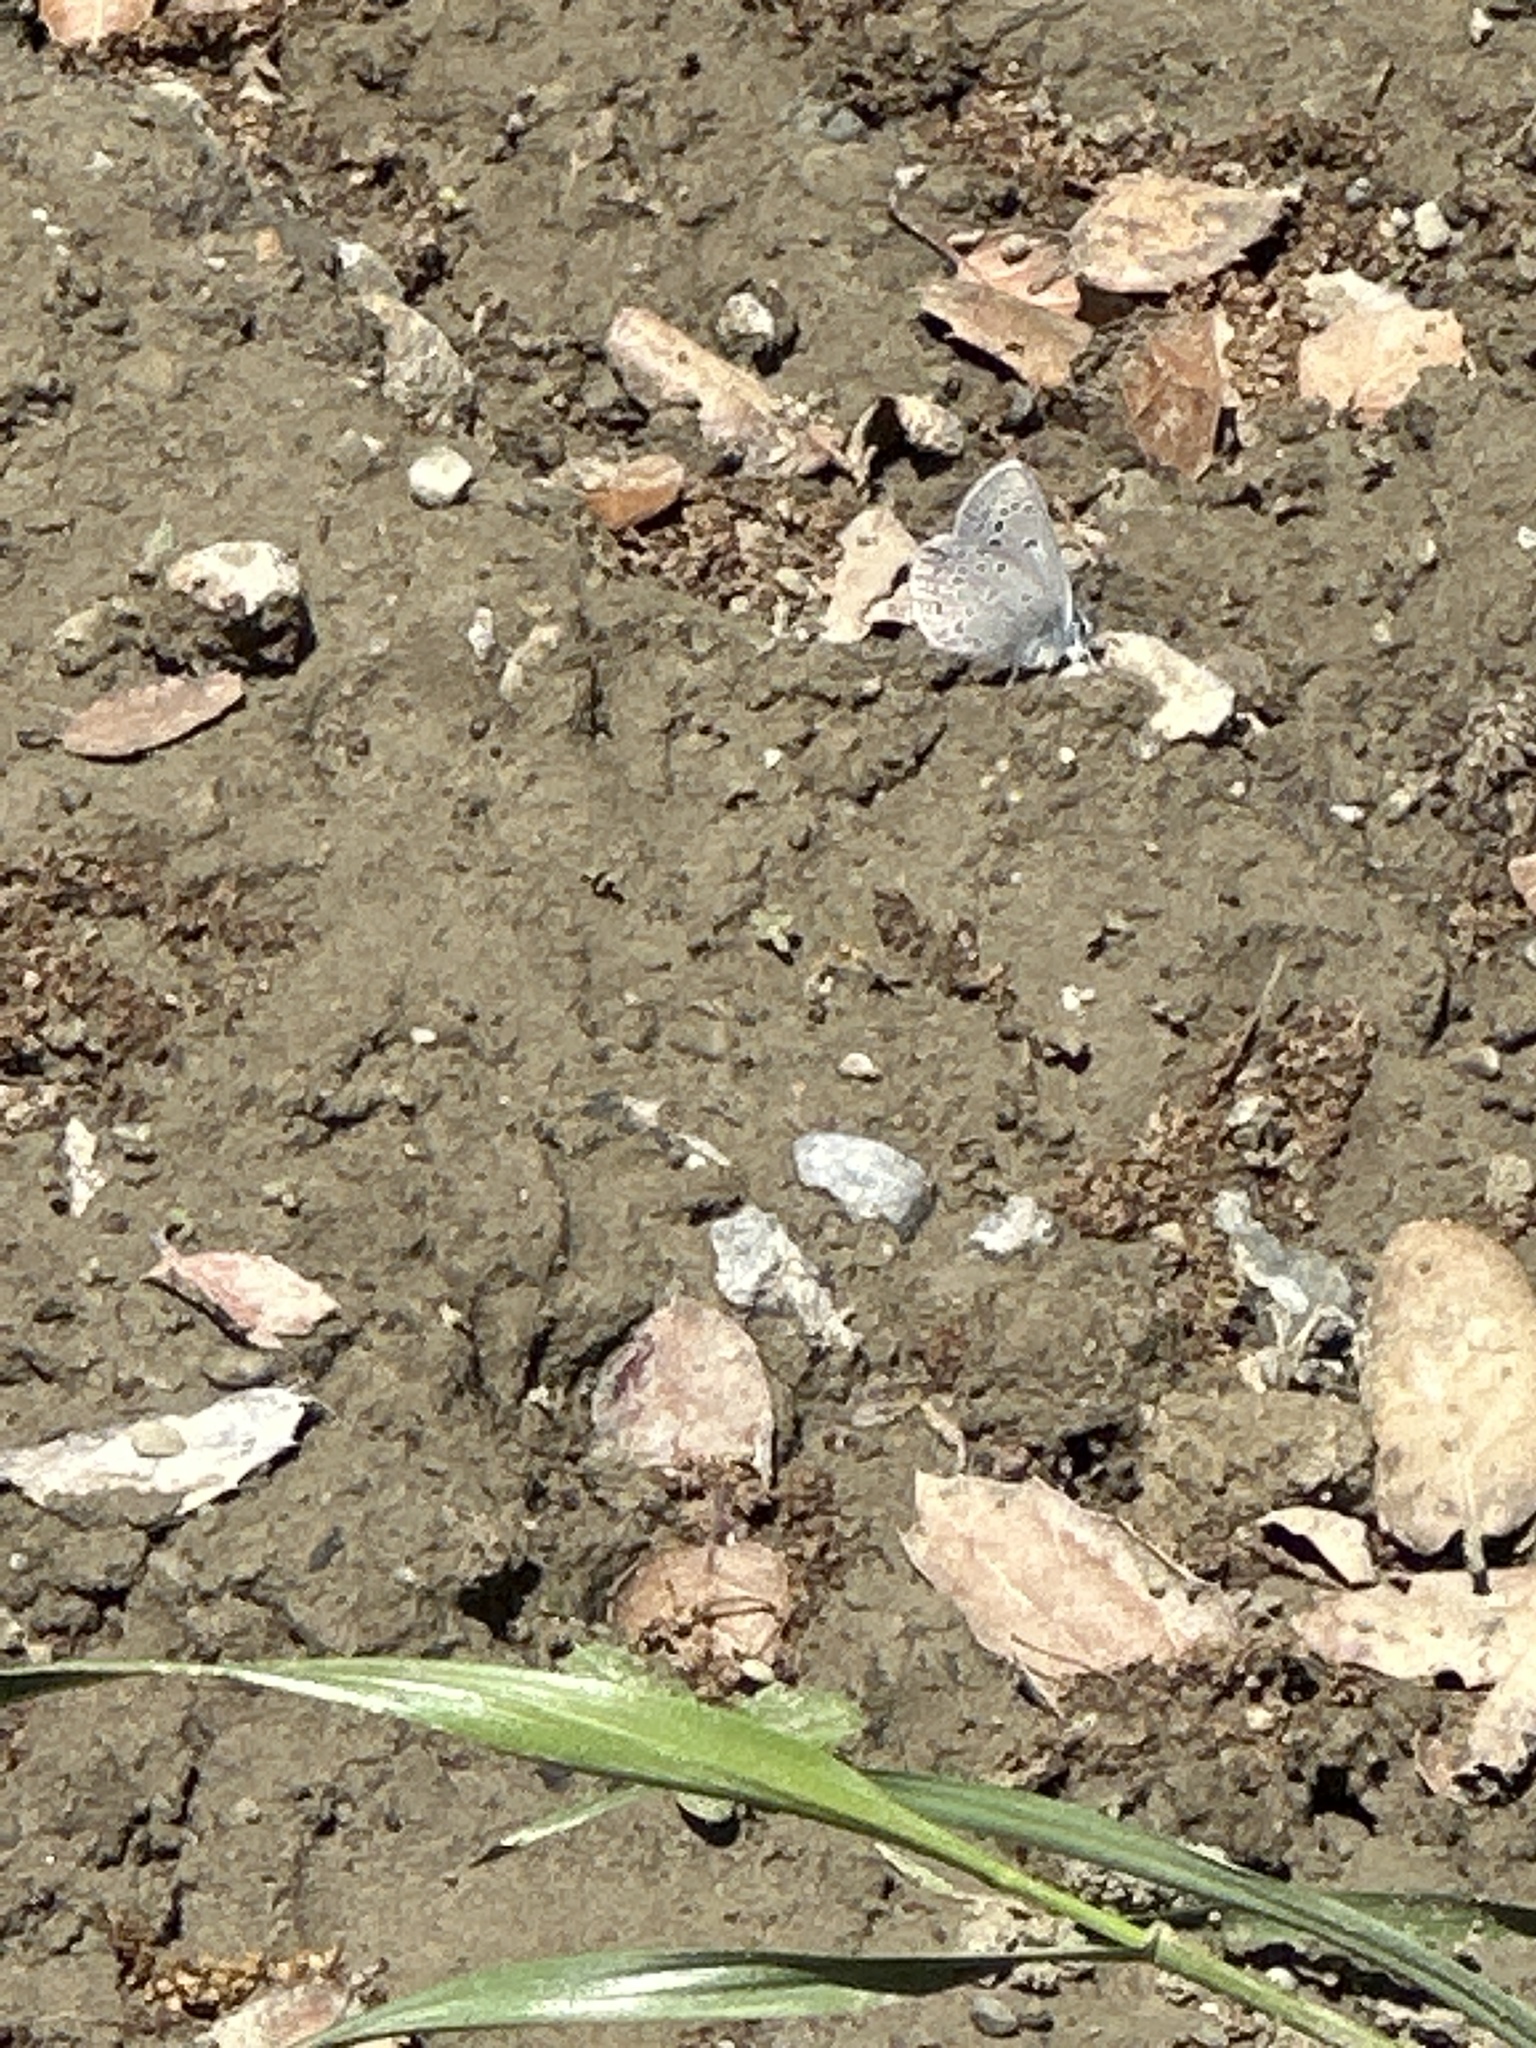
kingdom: Animalia
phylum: Arthropoda
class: Insecta
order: Lepidoptera
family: Lycaenidae
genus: Icaricia
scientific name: Icaricia icarioides
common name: Boisduval's blue
